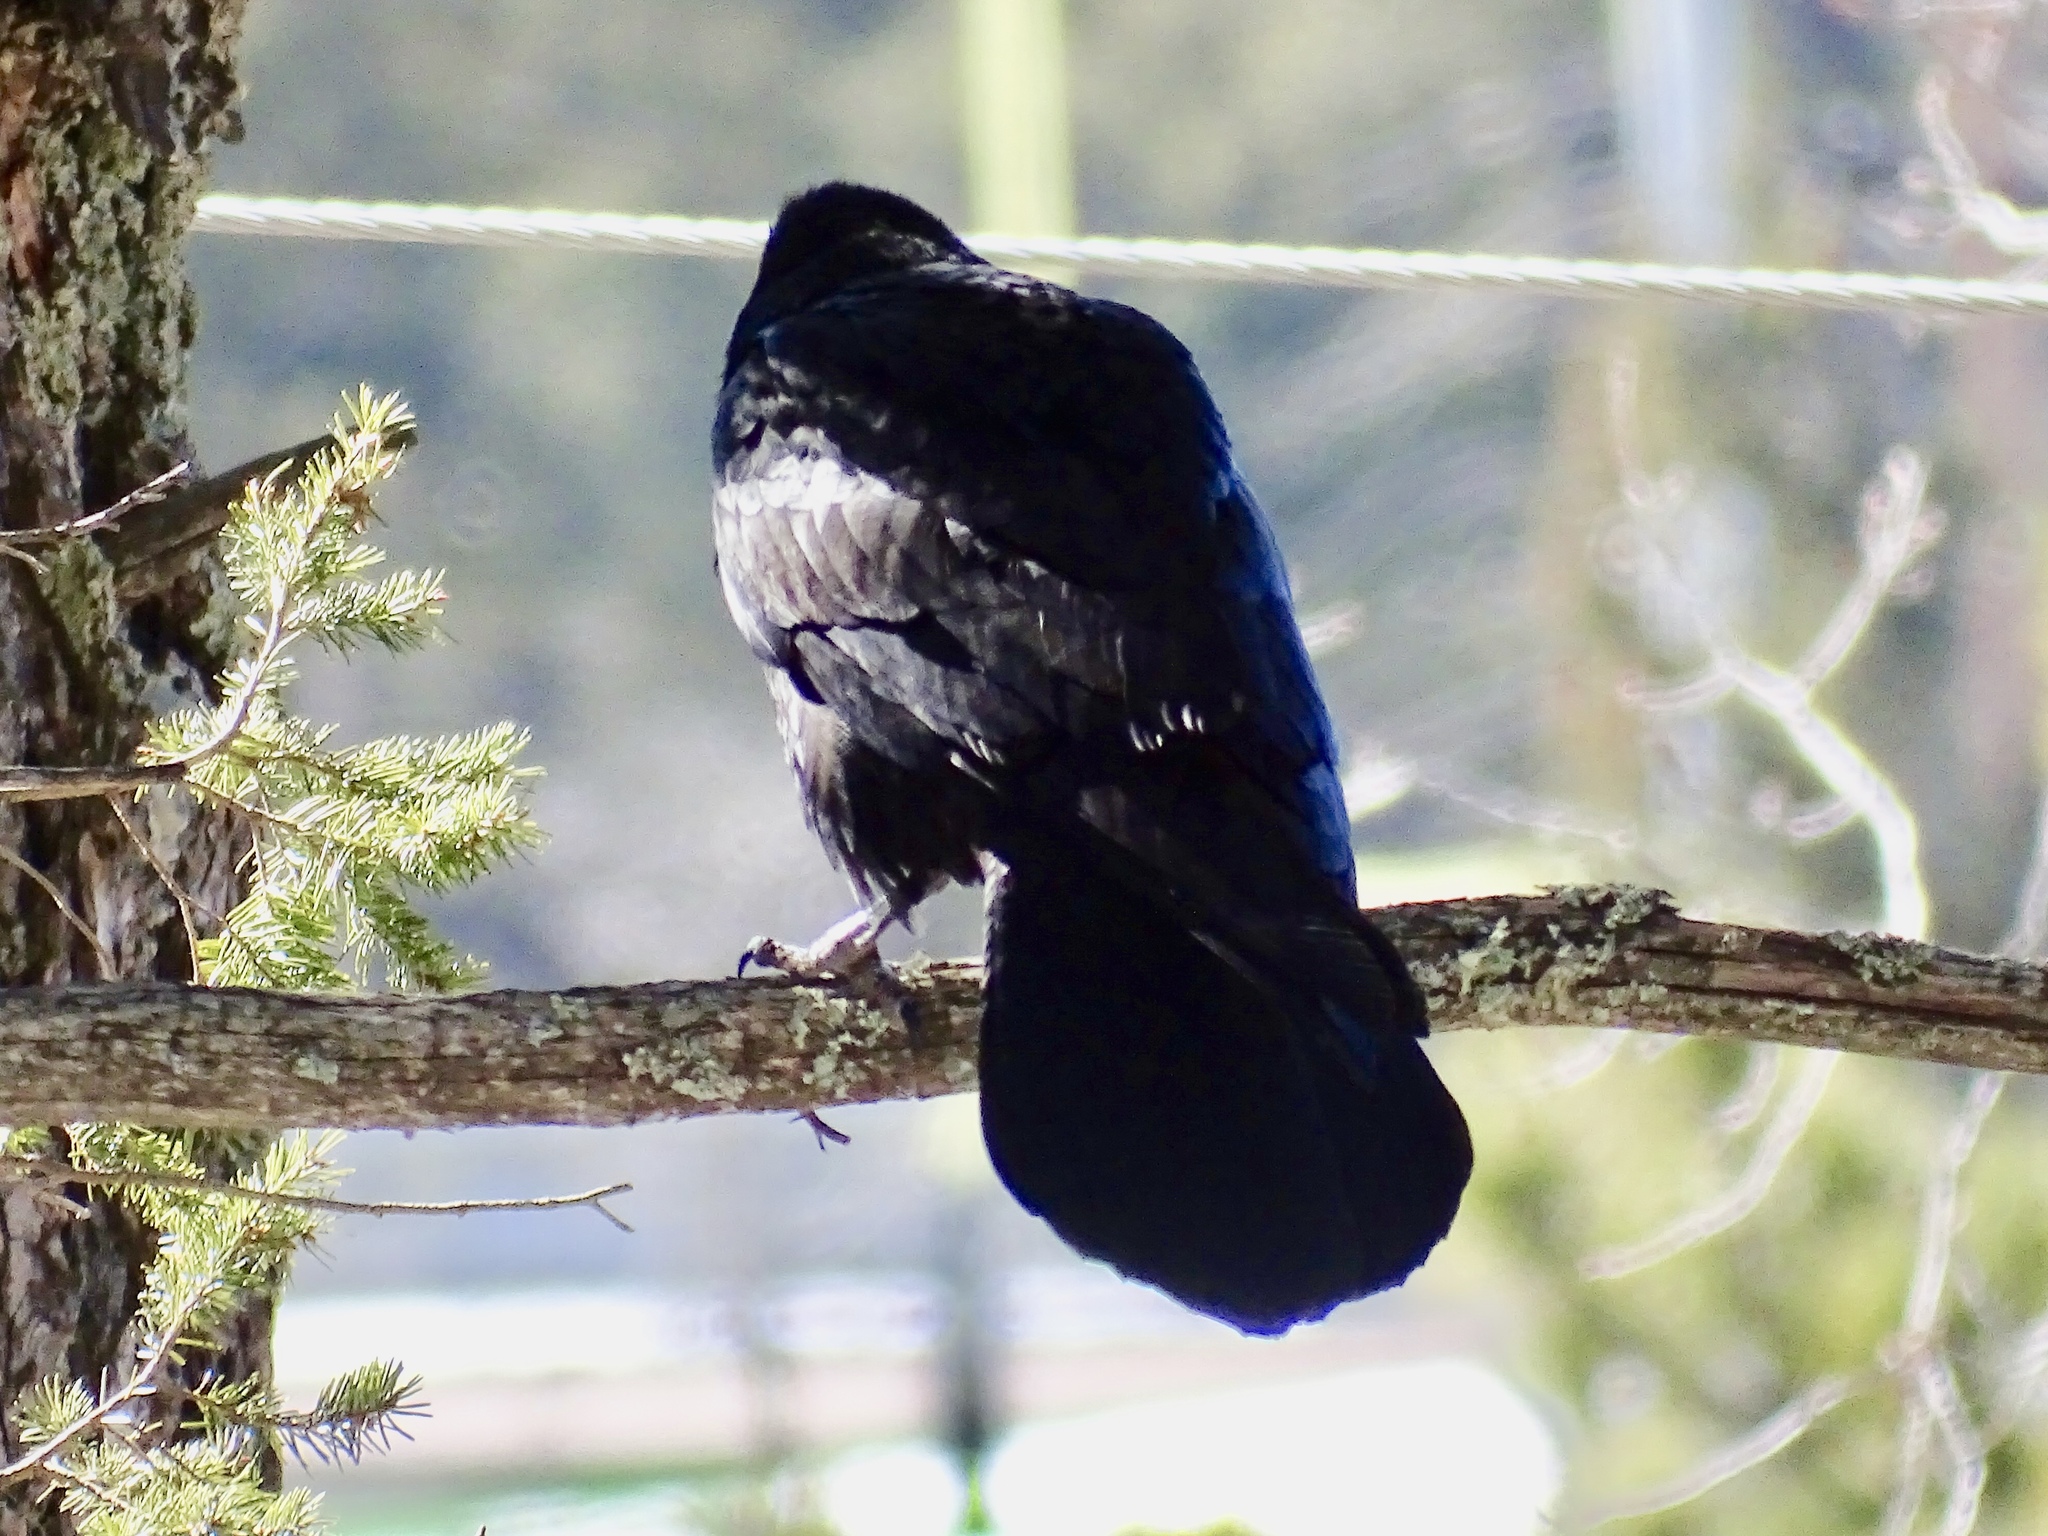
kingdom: Animalia
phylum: Chordata
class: Aves
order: Passeriformes
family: Corvidae
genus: Corvus
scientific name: Corvus corax
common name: Common raven
